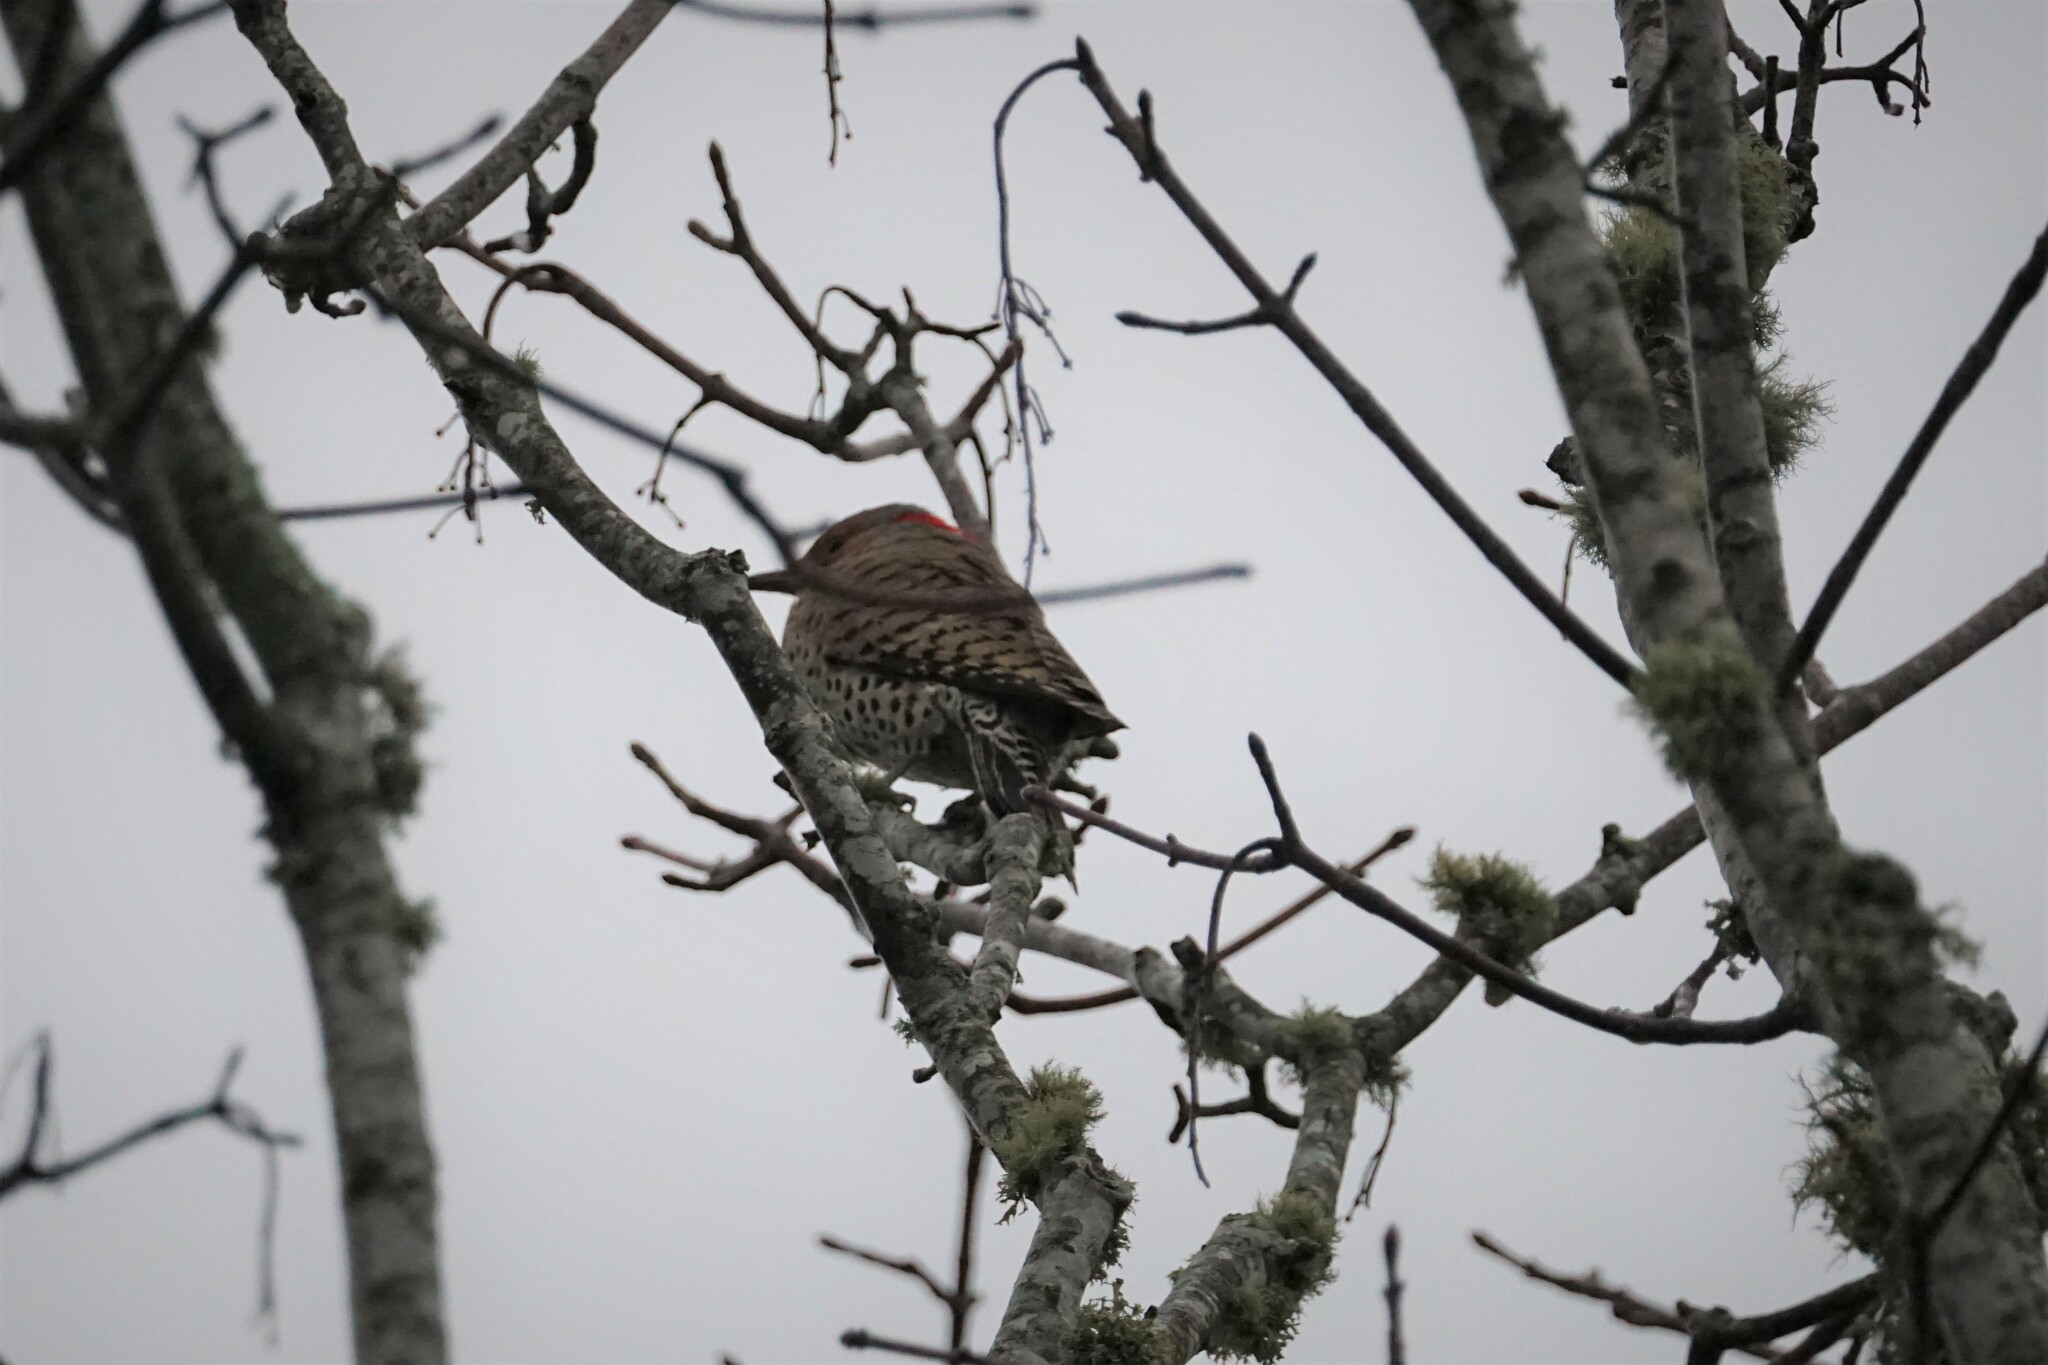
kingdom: Animalia
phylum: Chordata
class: Aves
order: Piciformes
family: Picidae
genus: Colaptes
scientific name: Colaptes auratus
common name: Northern flicker
